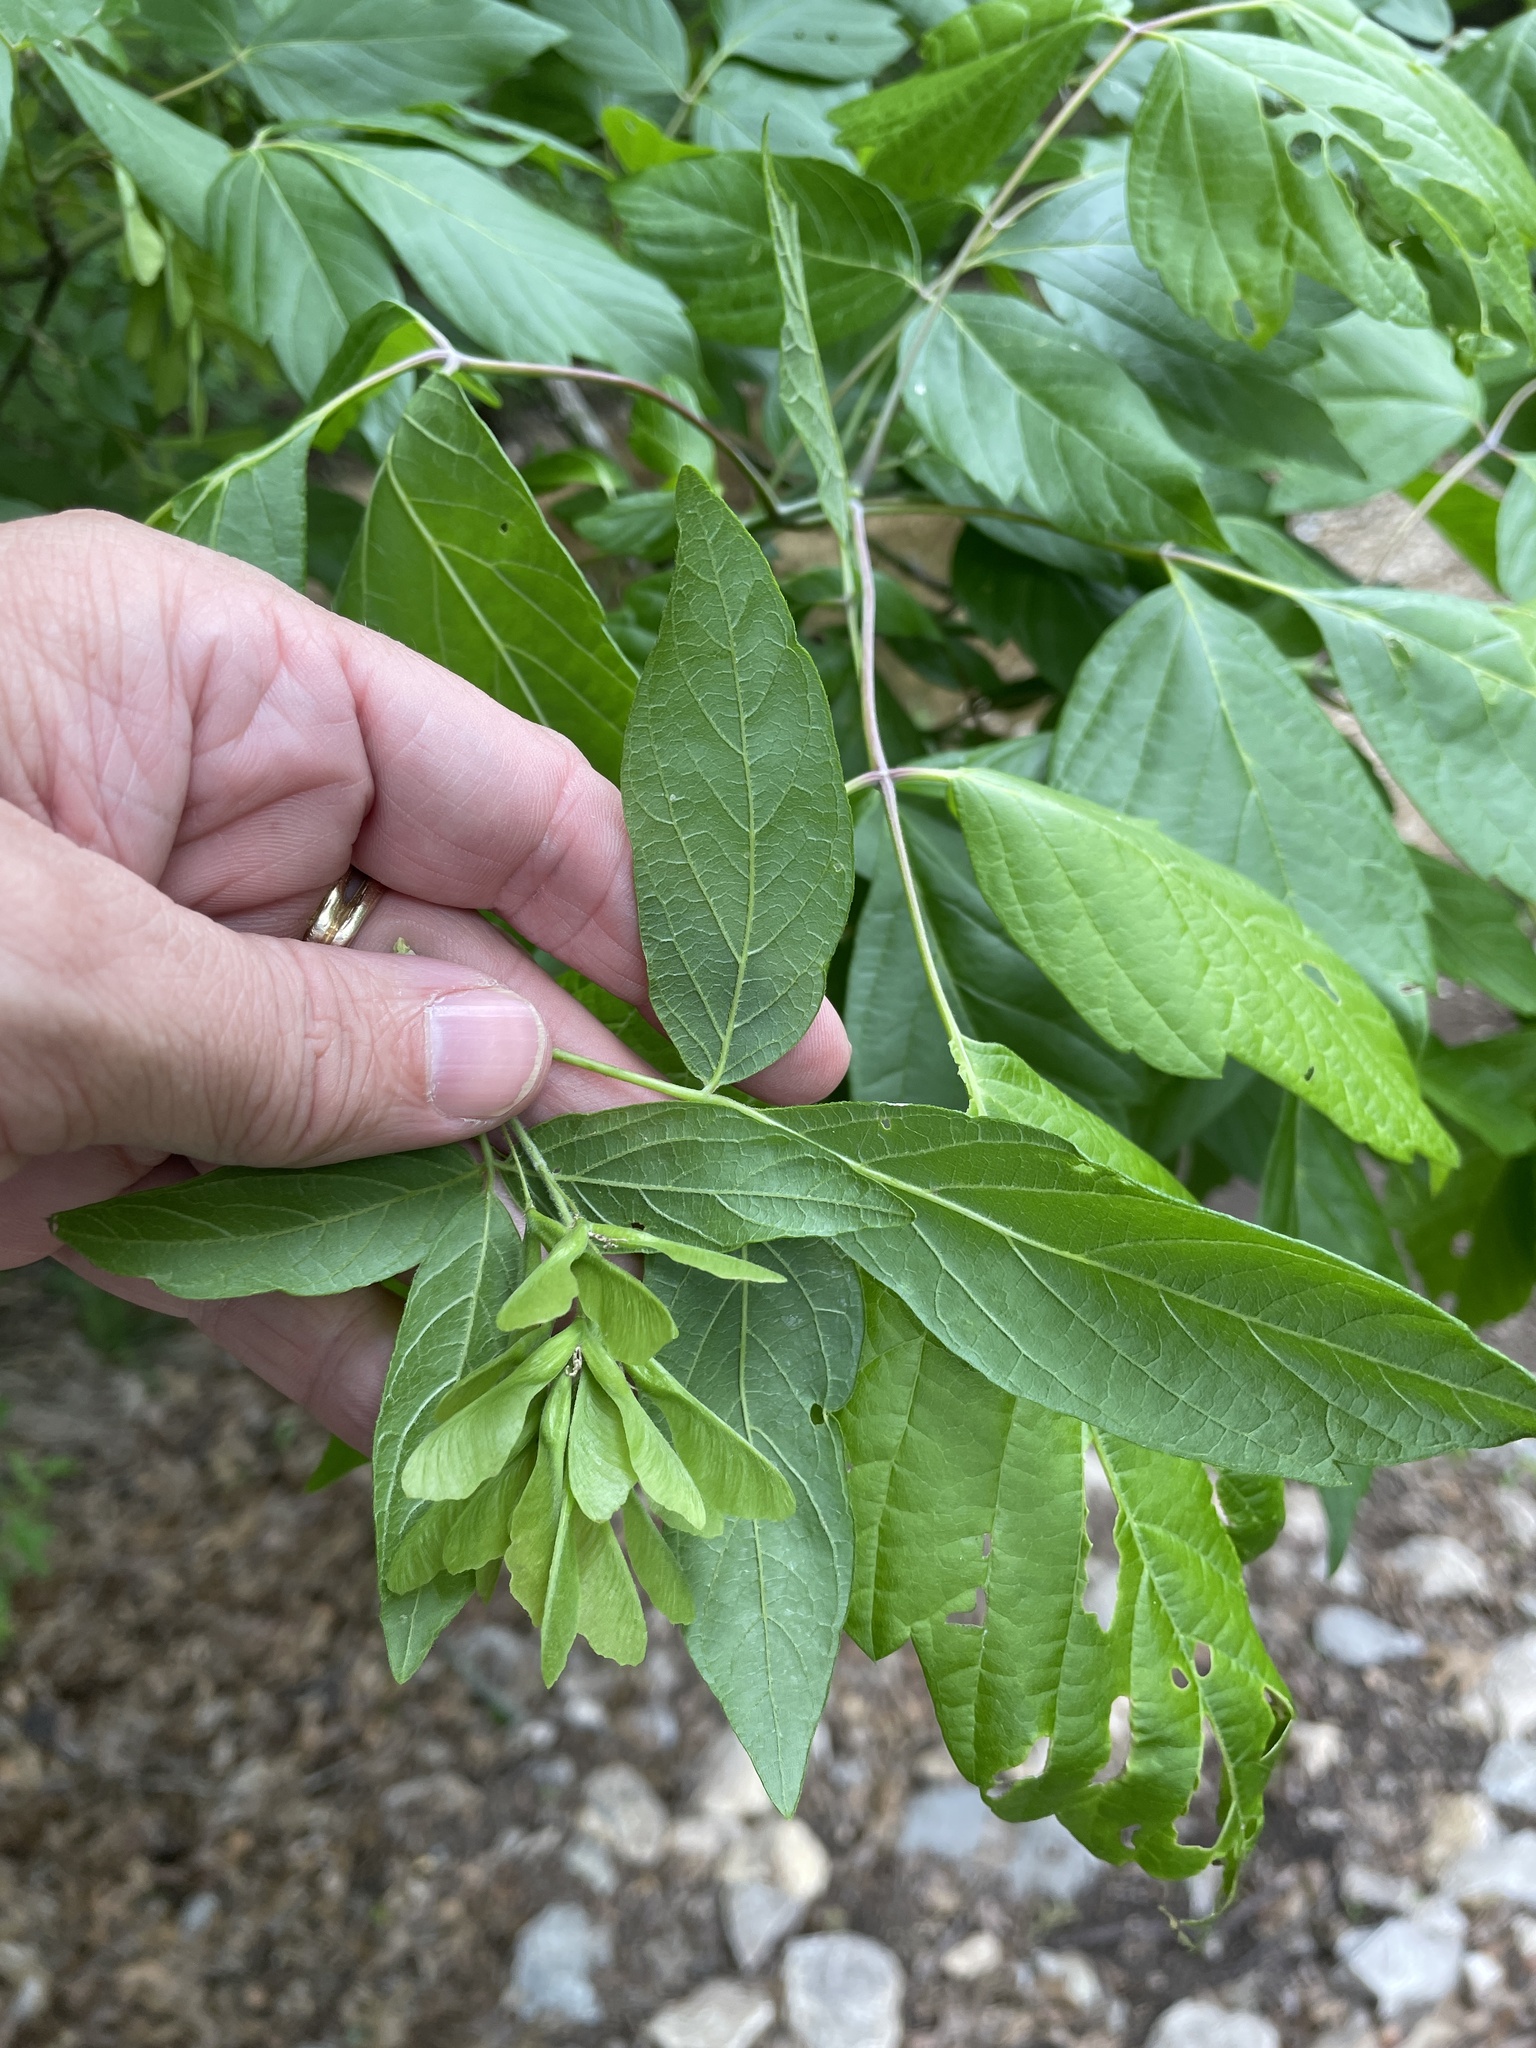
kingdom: Plantae
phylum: Tracheophyta
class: Magnoliopsida
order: Sapindales
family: Sapindaceae
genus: Acer
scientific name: Acer negundo
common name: Ashleaf maple
